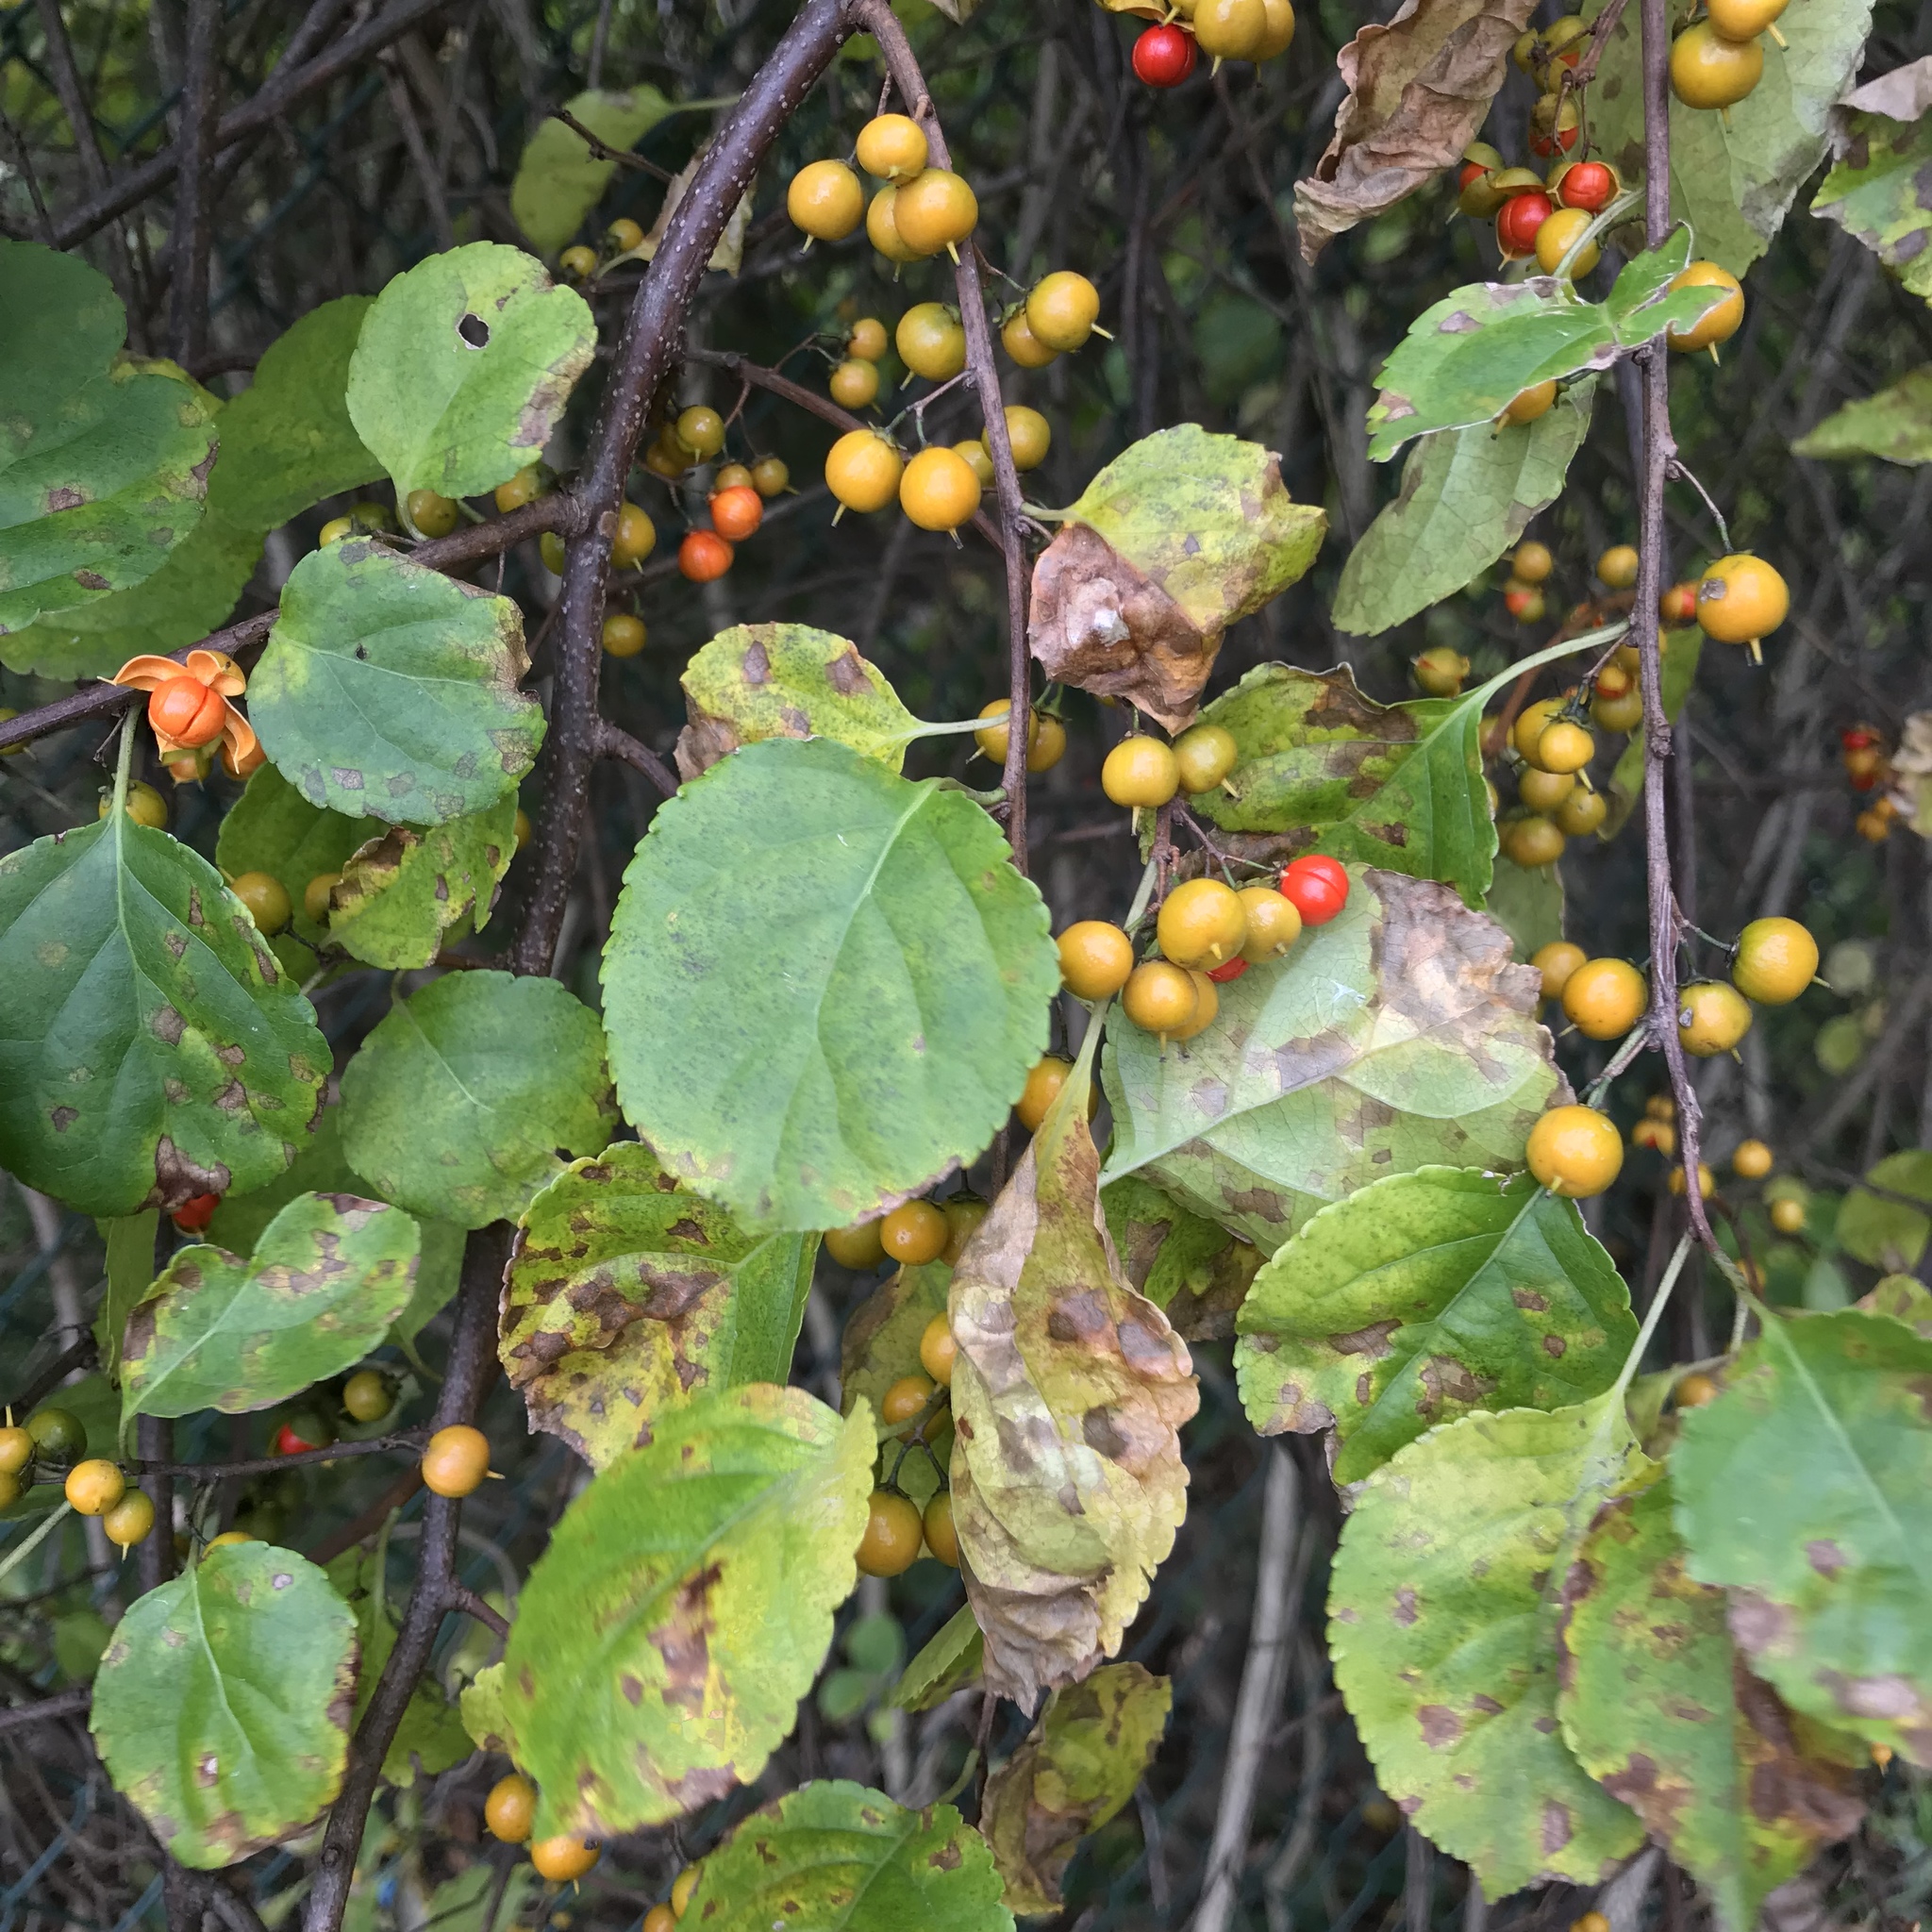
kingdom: Plantae
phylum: Tracheophyta
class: Magnoliopsida
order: Celastrales
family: Celastraceae
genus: Celastrus
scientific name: Celastrus orbiculatus
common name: Oriental bittersweet
